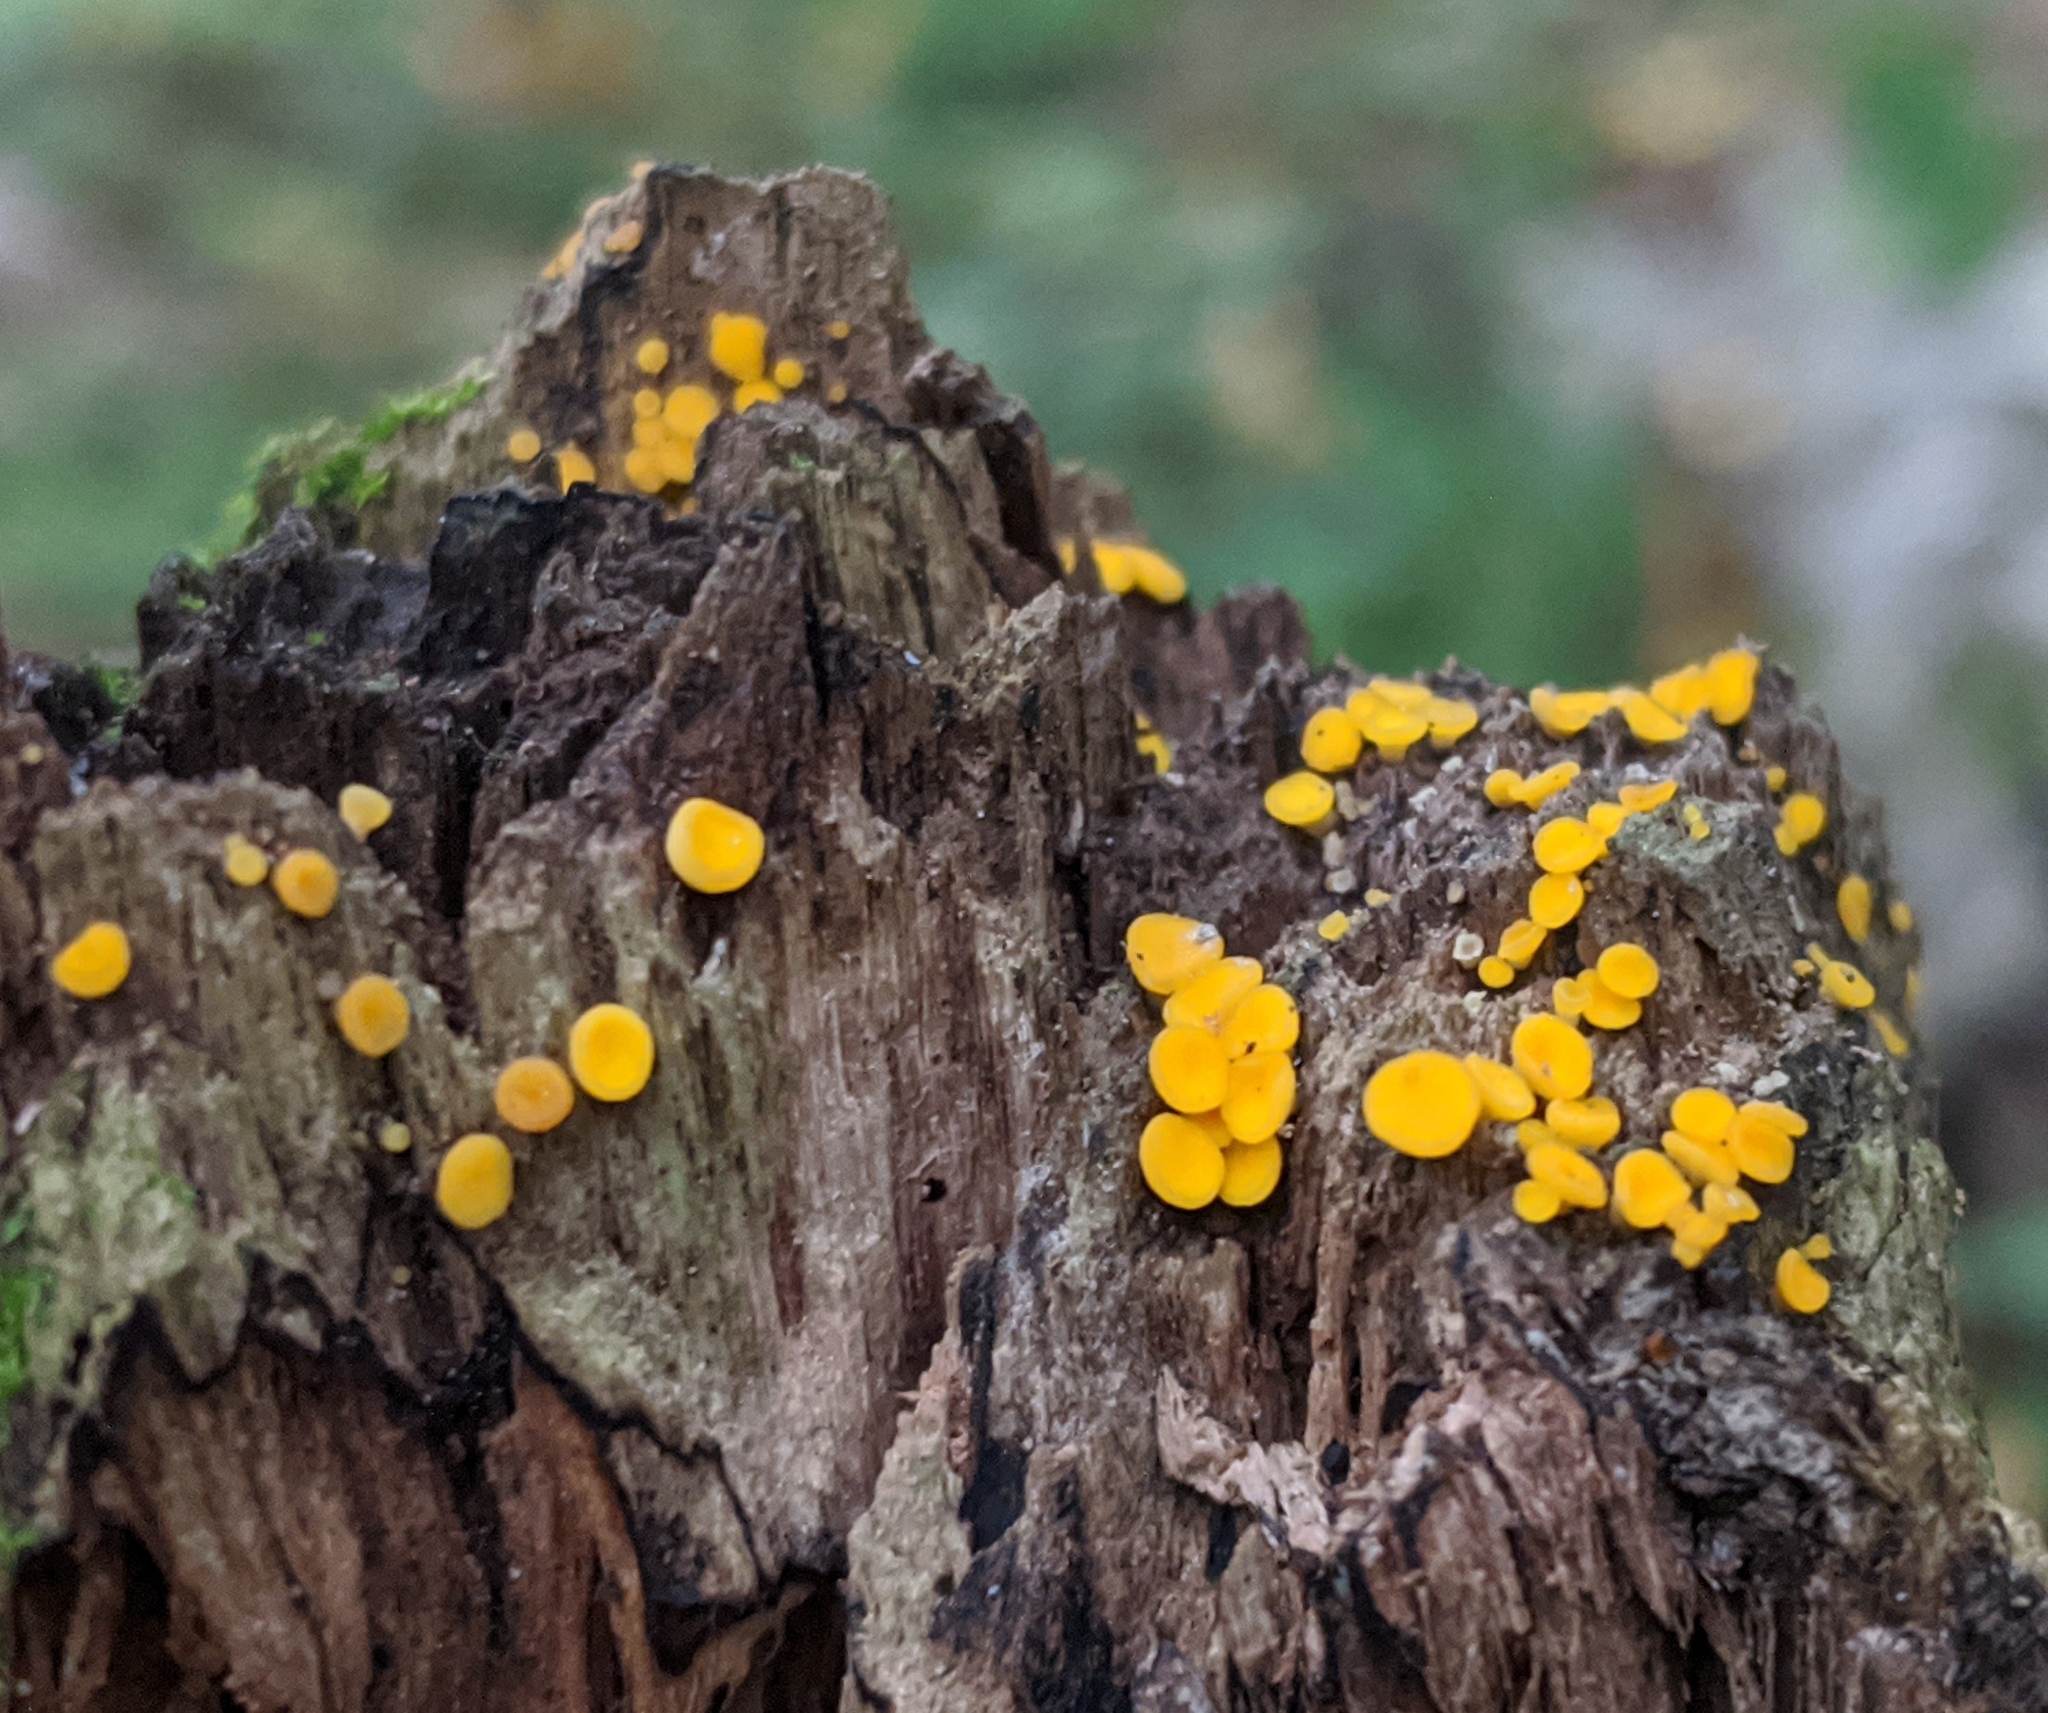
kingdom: Fungi
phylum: Ascomycota
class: Leotiomycetes
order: Helotiales
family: Pezizellaceae
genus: Calycina
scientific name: Calycina citrina
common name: Yellow fairy cups
